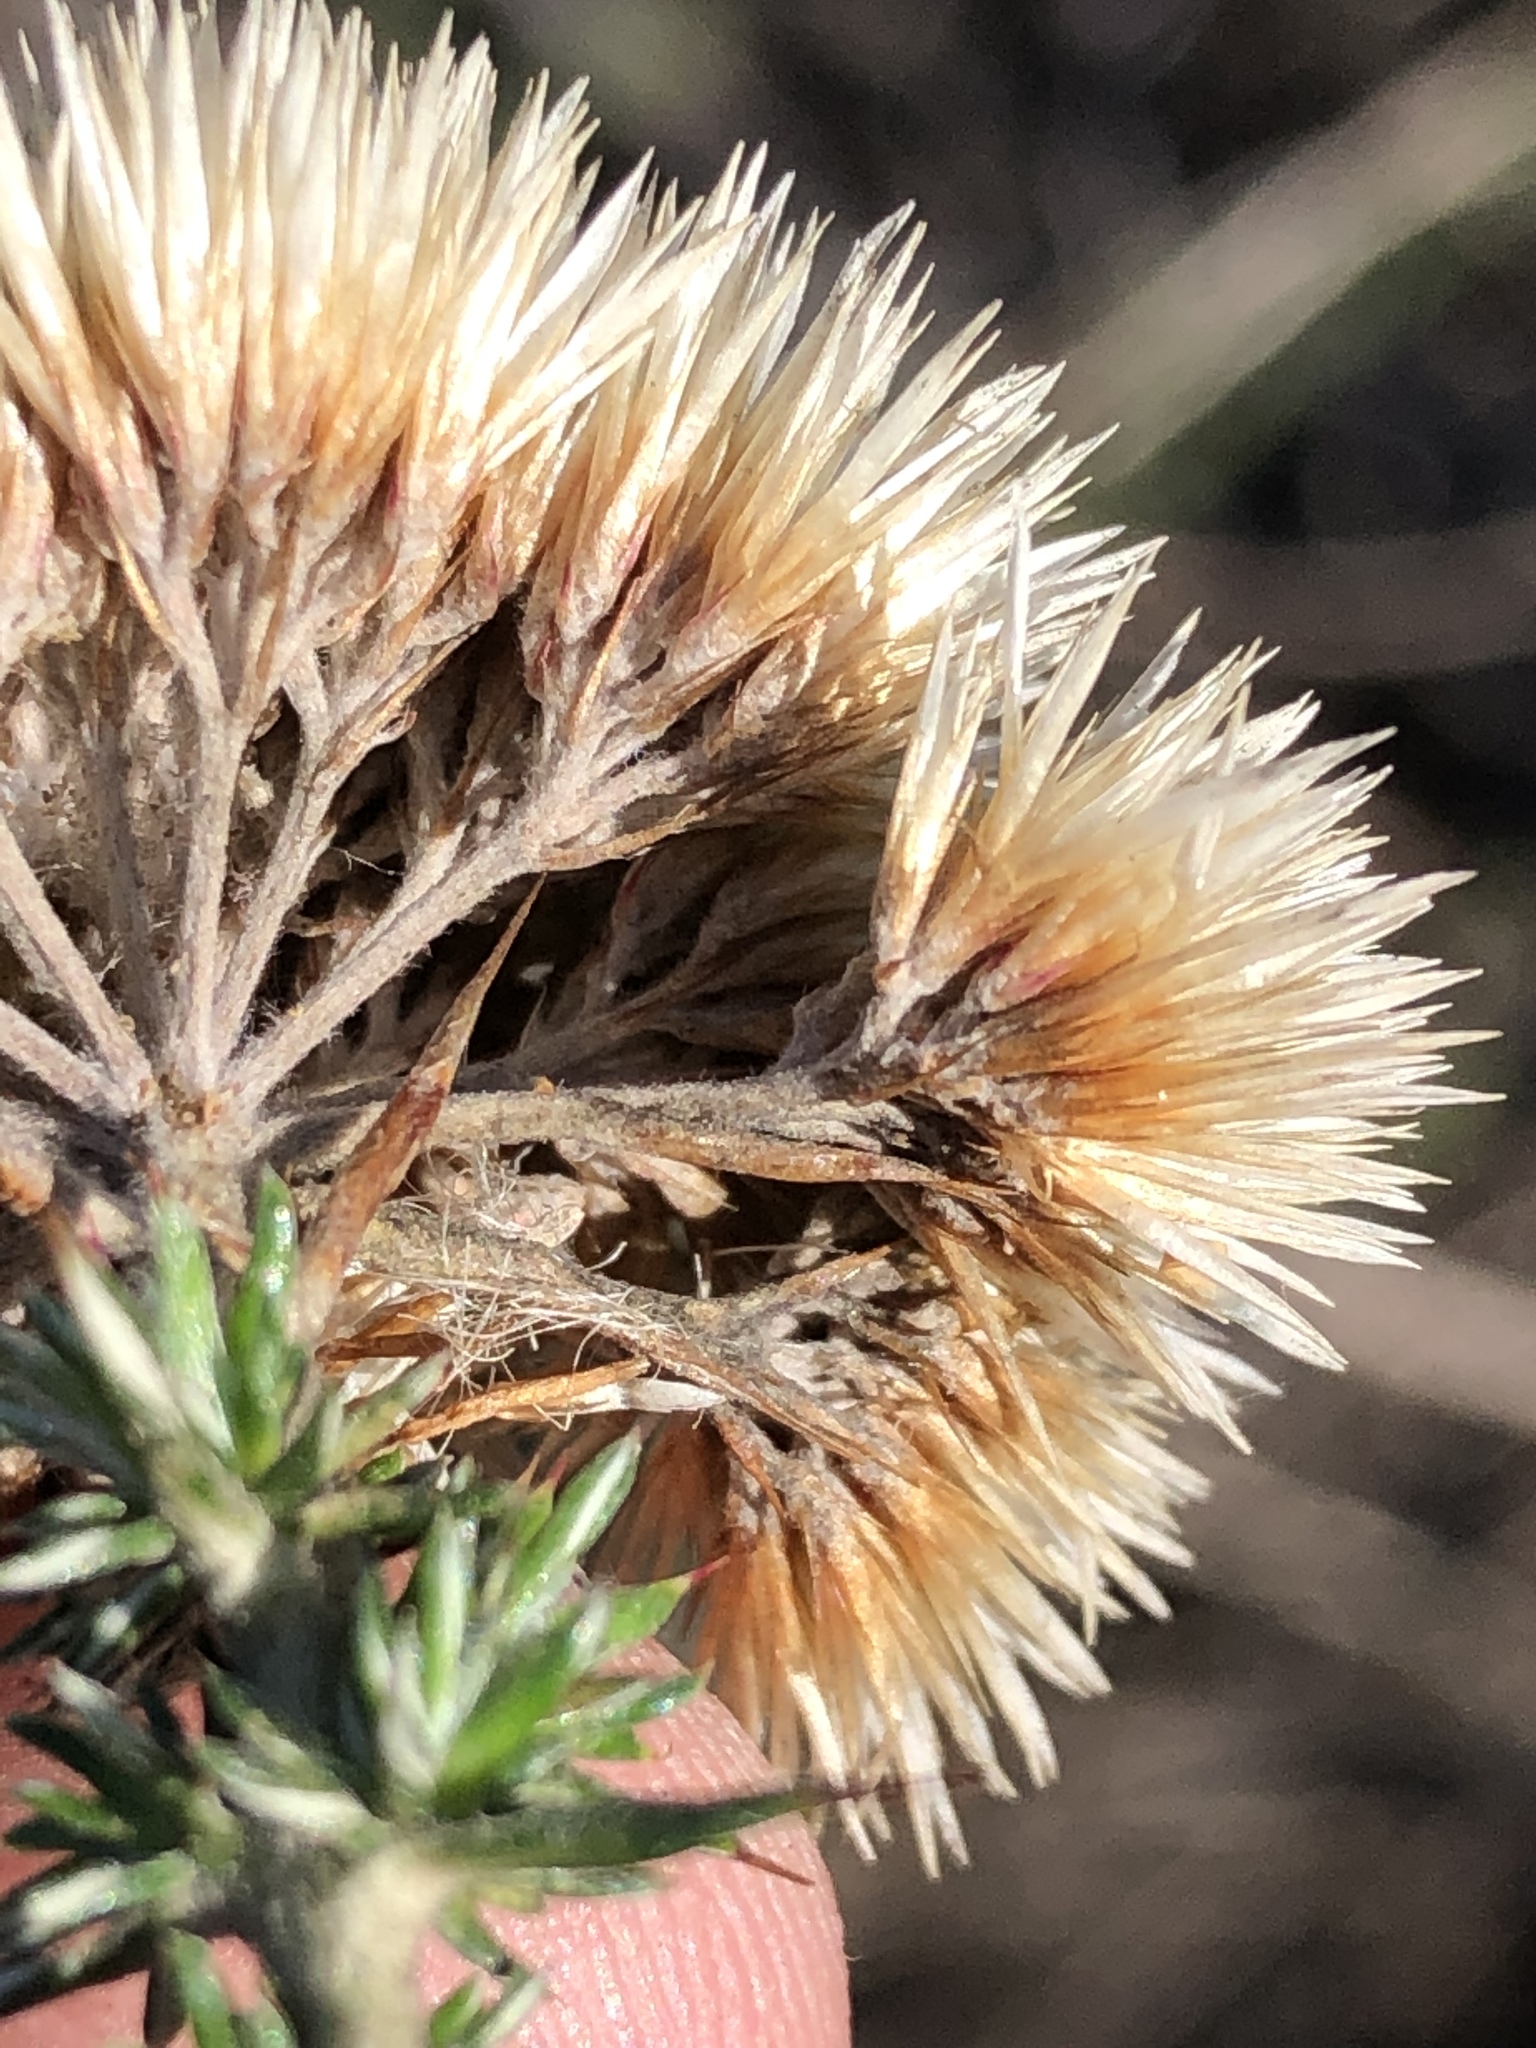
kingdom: Plantae
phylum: Tracheophyta
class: Magnoliopsida
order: Asterales
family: Asteraceae
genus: Metalasia
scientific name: Metalasia acuta
